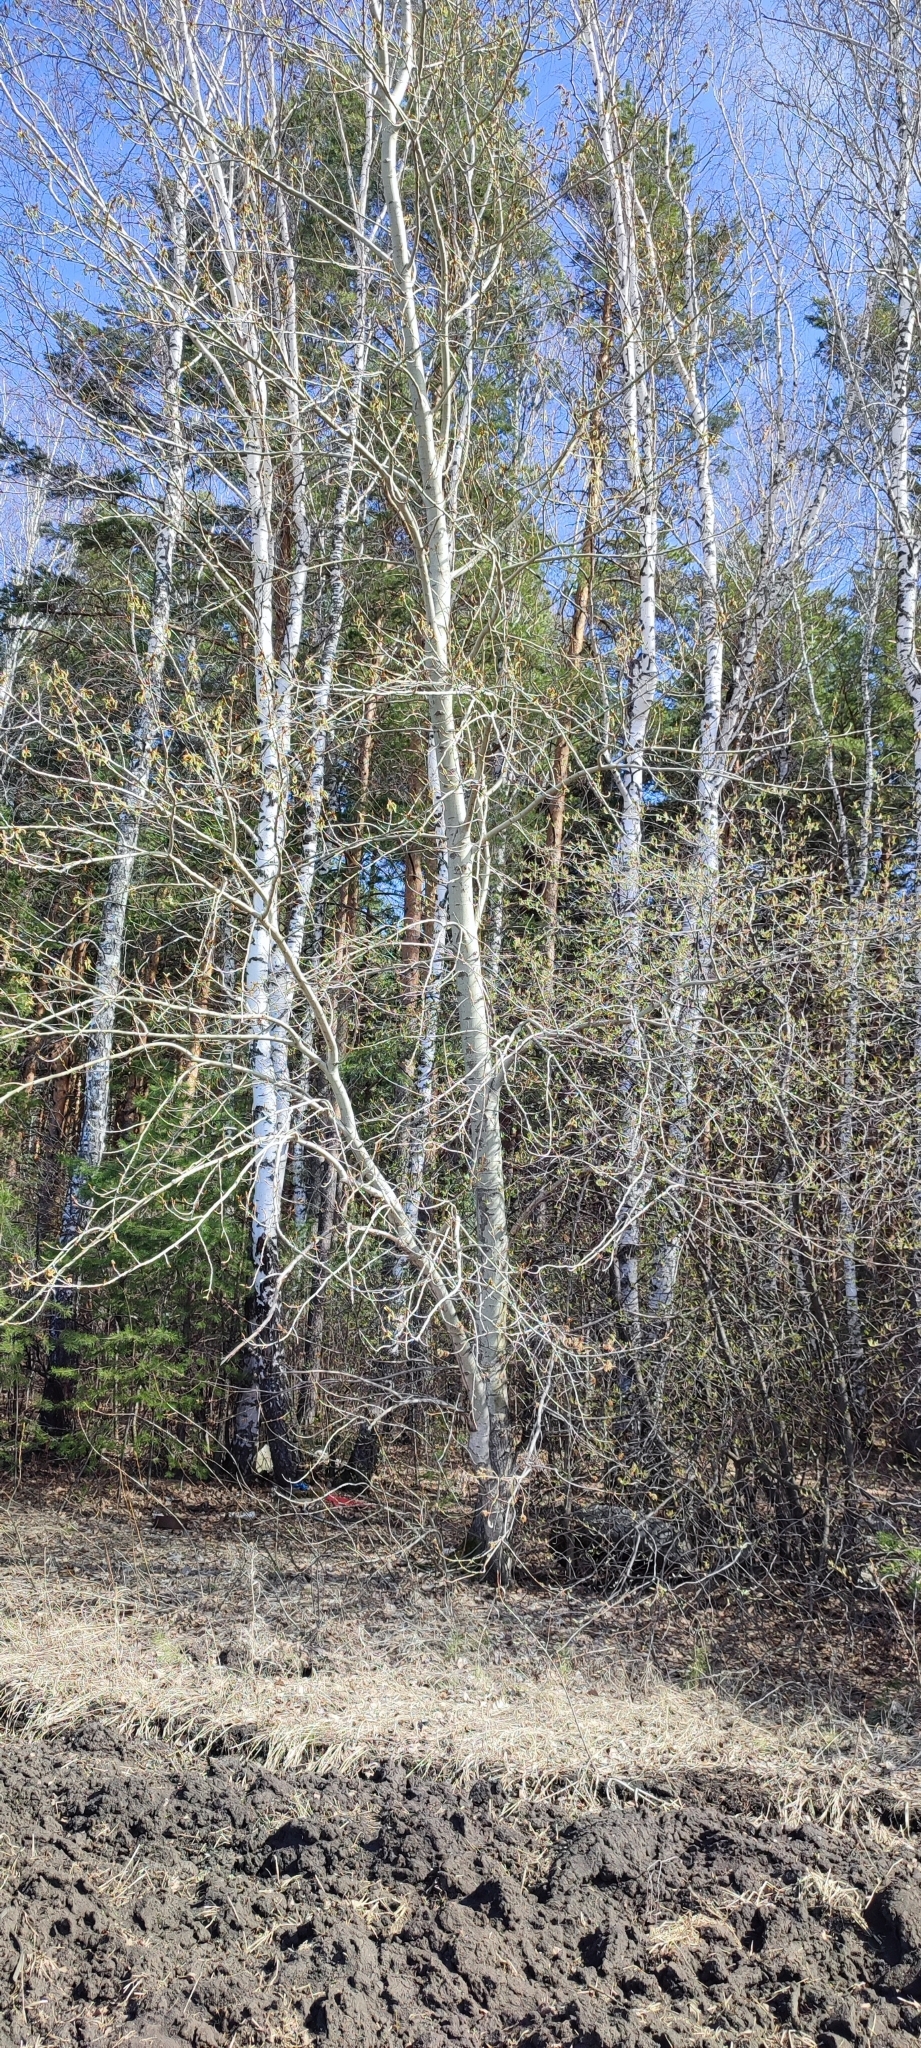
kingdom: Plantae
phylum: Tracheophyta
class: Magnoliopsida
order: Malpighiales
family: Salicaceae
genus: Populus
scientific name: Populus tremula
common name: European aspen
